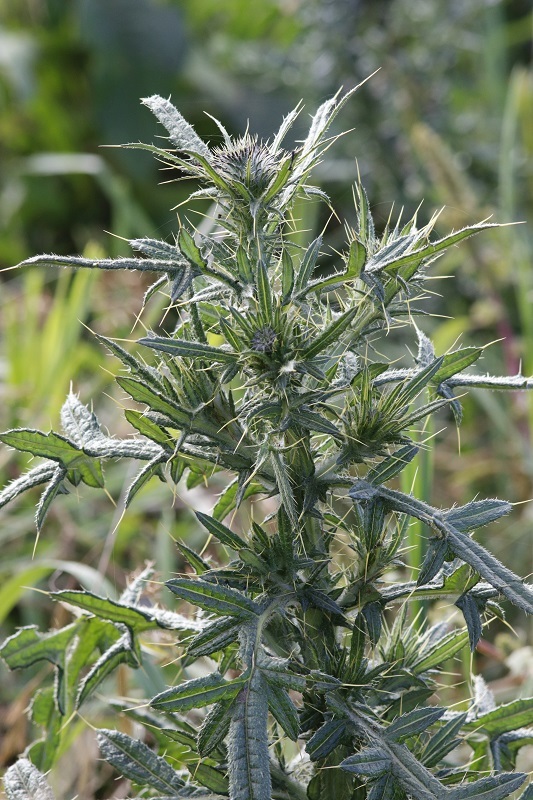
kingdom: Plantae
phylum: Tracheophyta
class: Magnoliopsida
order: Asterales
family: Asteraceae
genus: Cirsium
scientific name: Cirsium vulgare
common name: Bull thistle
